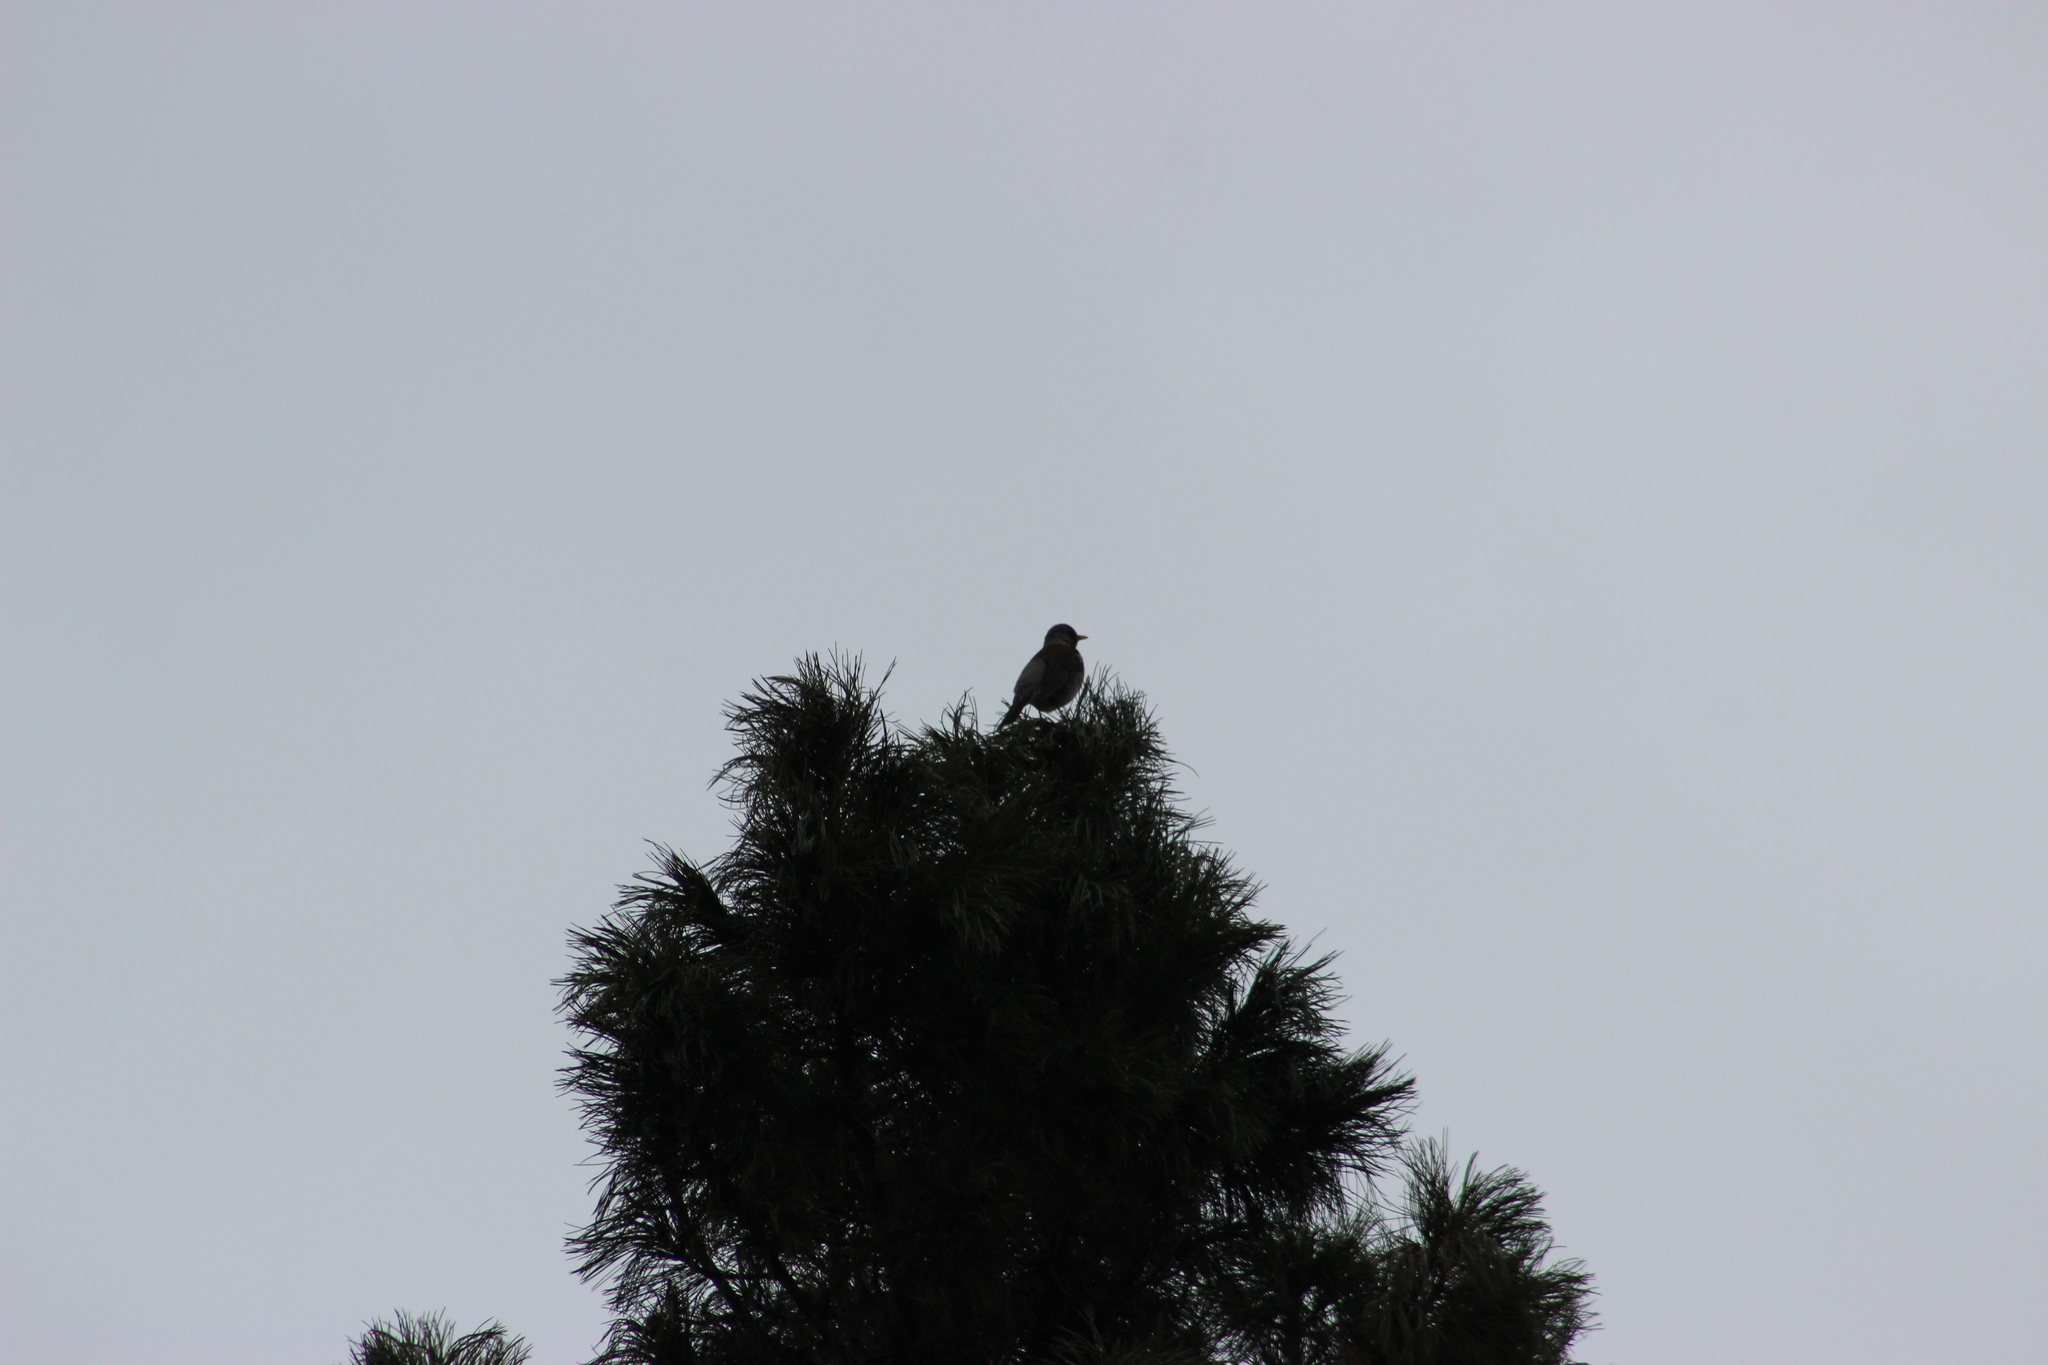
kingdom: Animalia
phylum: Chordata
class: Aves
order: Passeriformes
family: Turdidae
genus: Turdus
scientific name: Turdus pilaris
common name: Fieldfare
